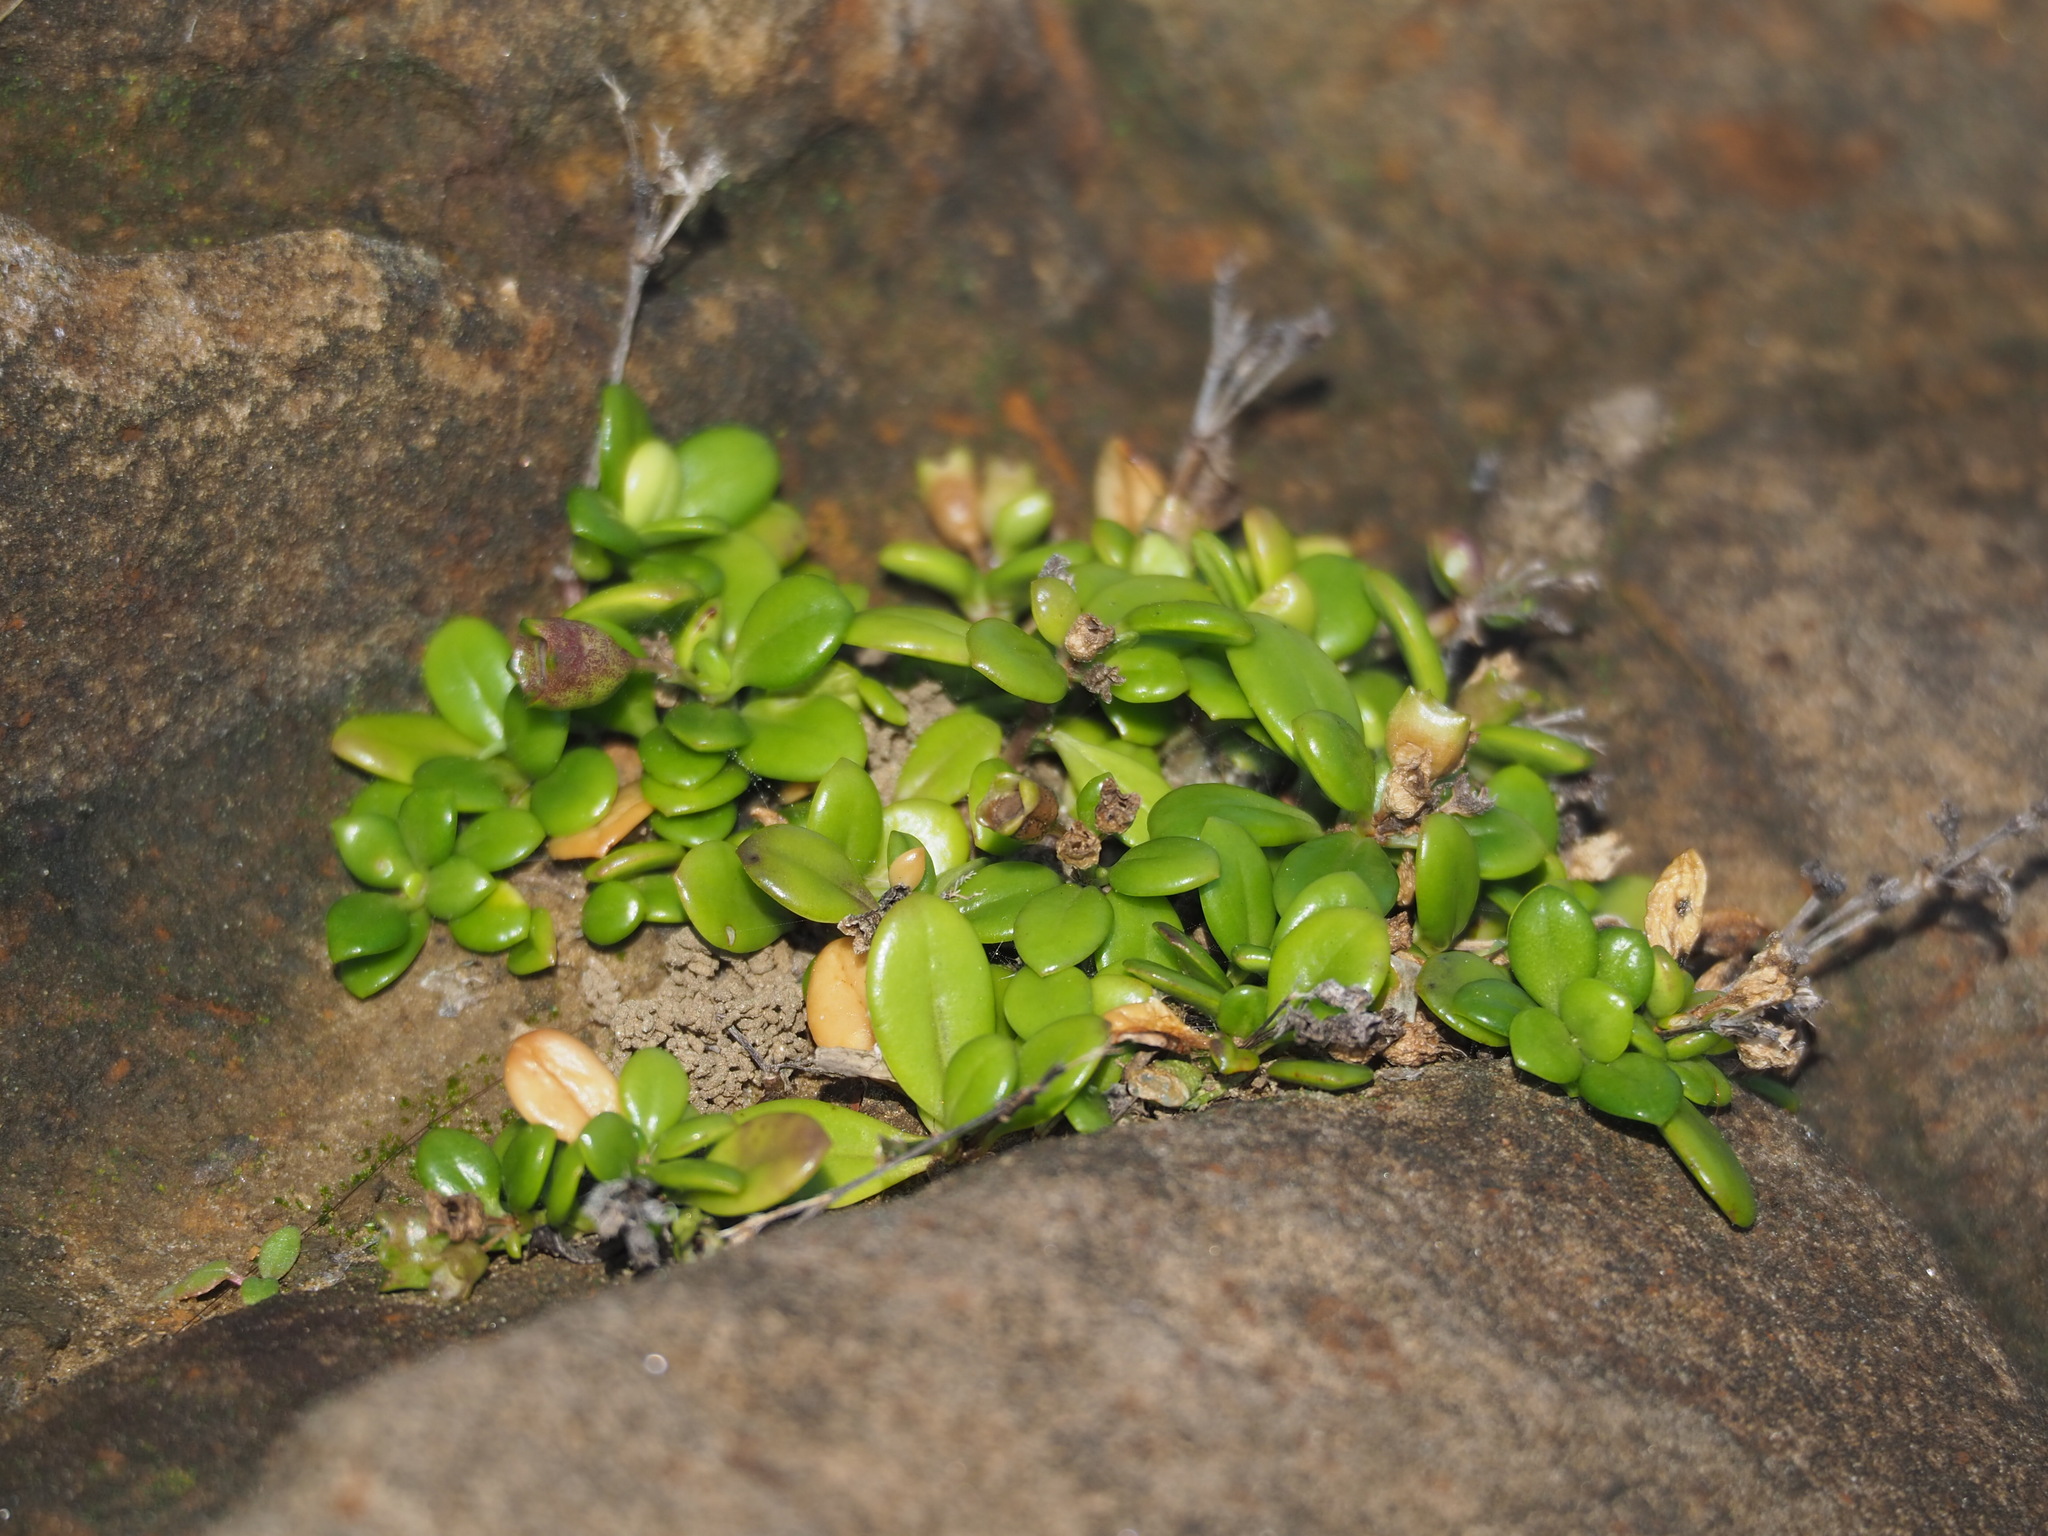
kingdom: Plantae
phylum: Tracheophyta
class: Magnoliopsida
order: Gentianales
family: Rubiaceae
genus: Leptopetalum
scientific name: Leptopetalum strigulosum
